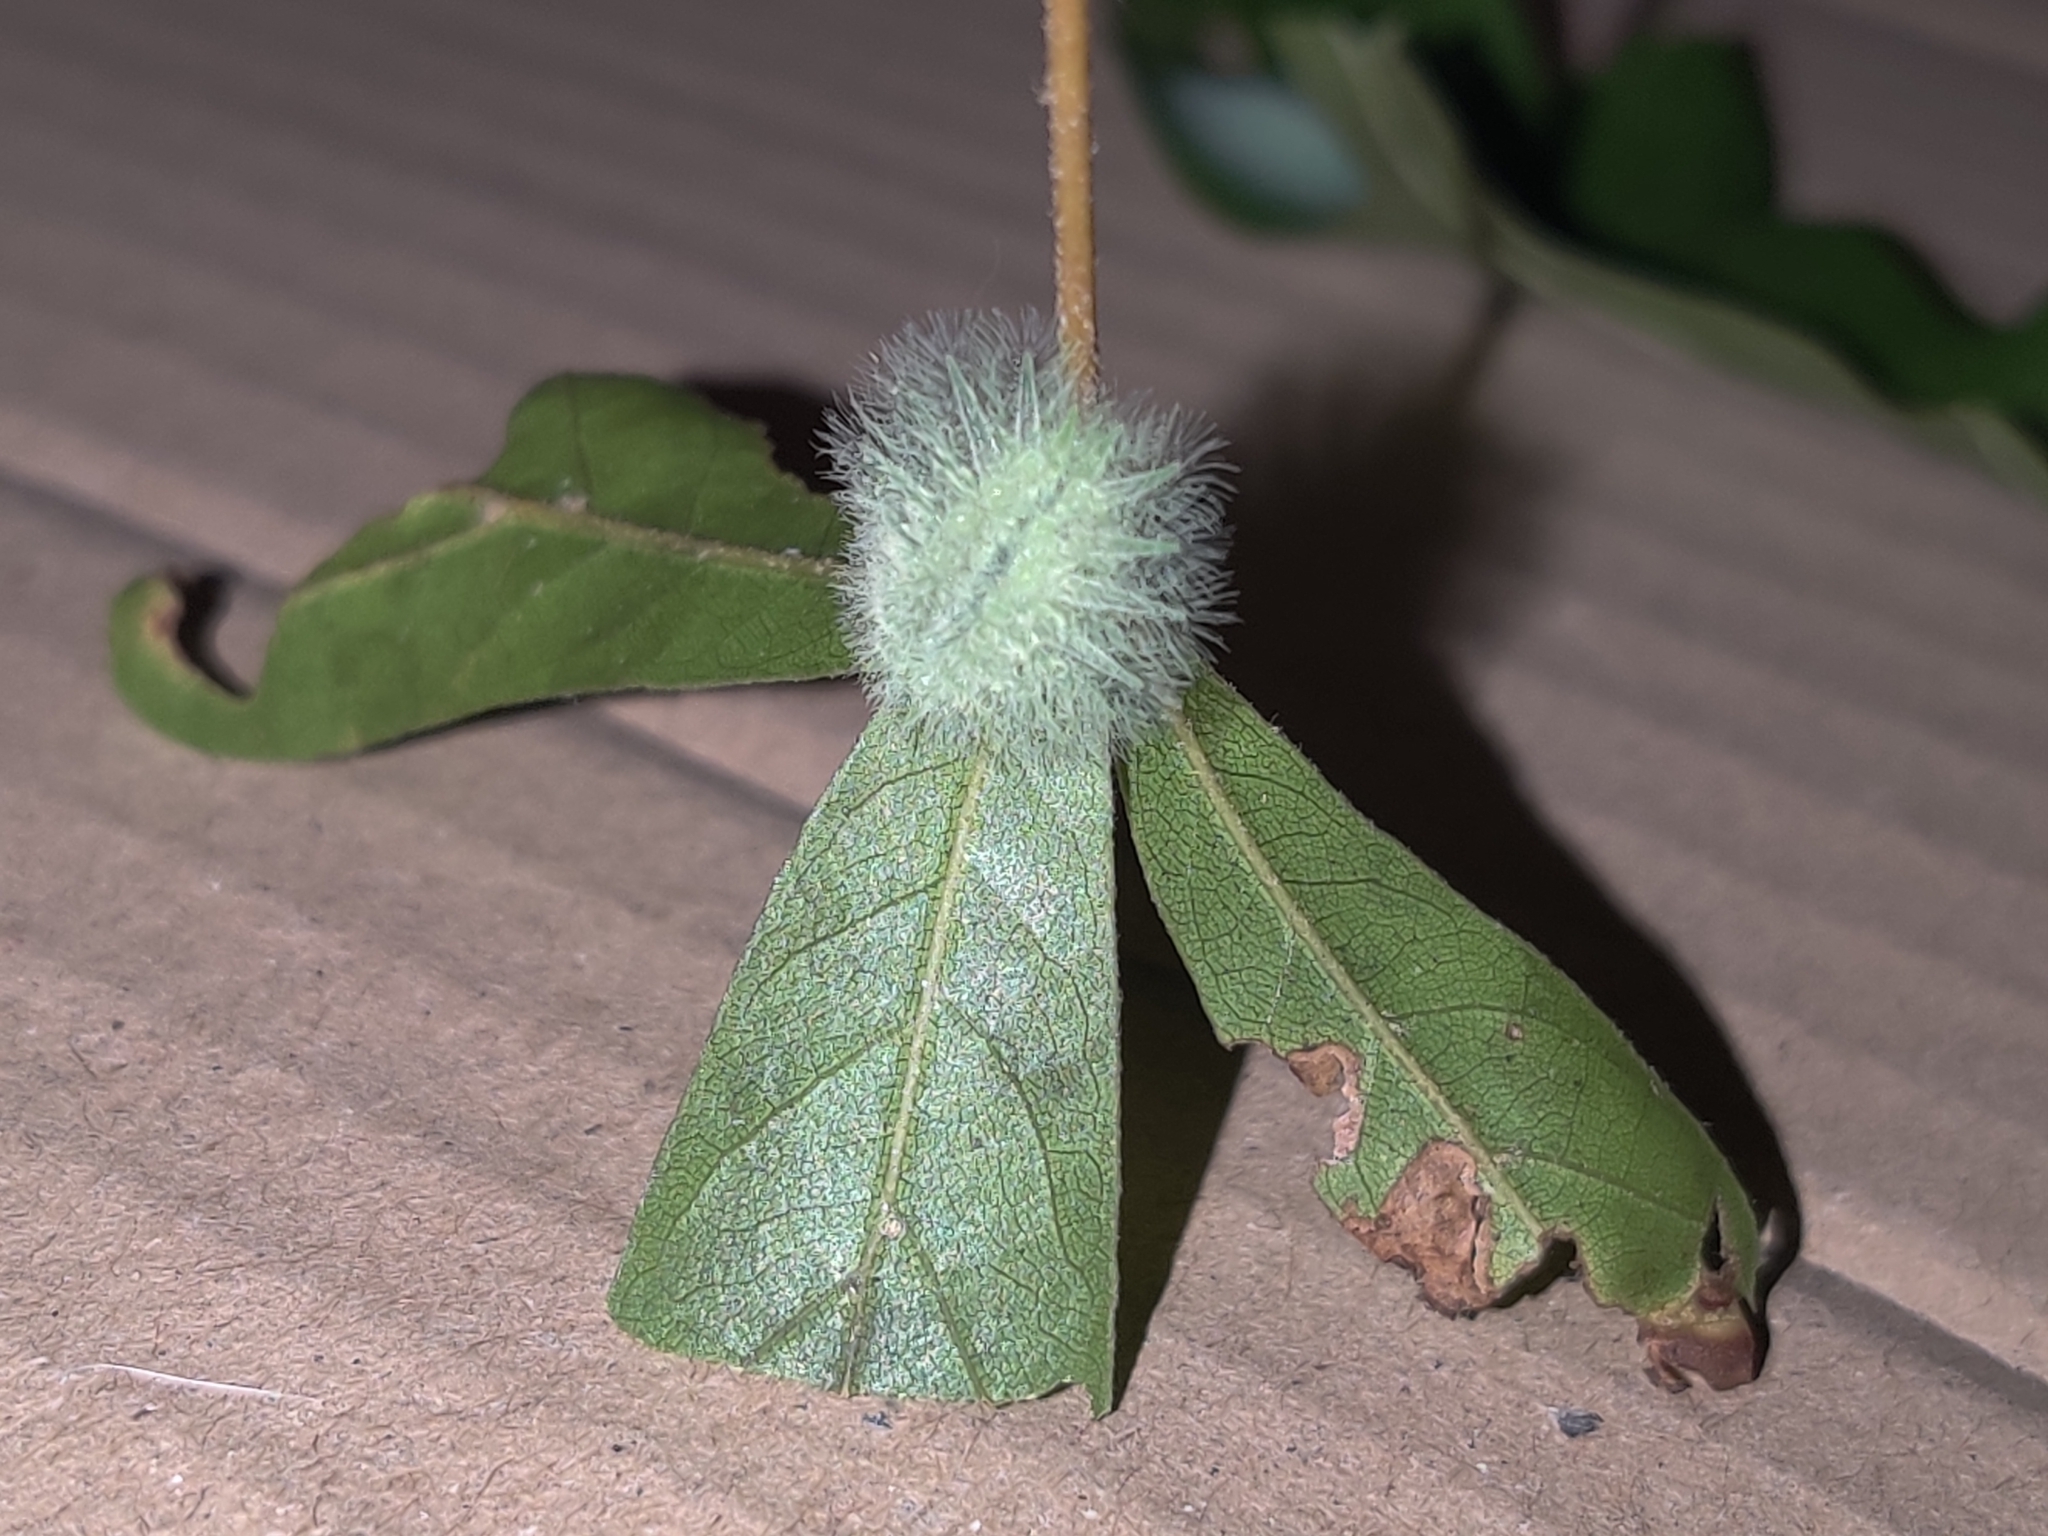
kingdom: Animalia
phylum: Arthropoda
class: Insecta
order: Lepidoptera
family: Limacodidae
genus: Isochaetes
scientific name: Isochaetes beutenmuelleri
